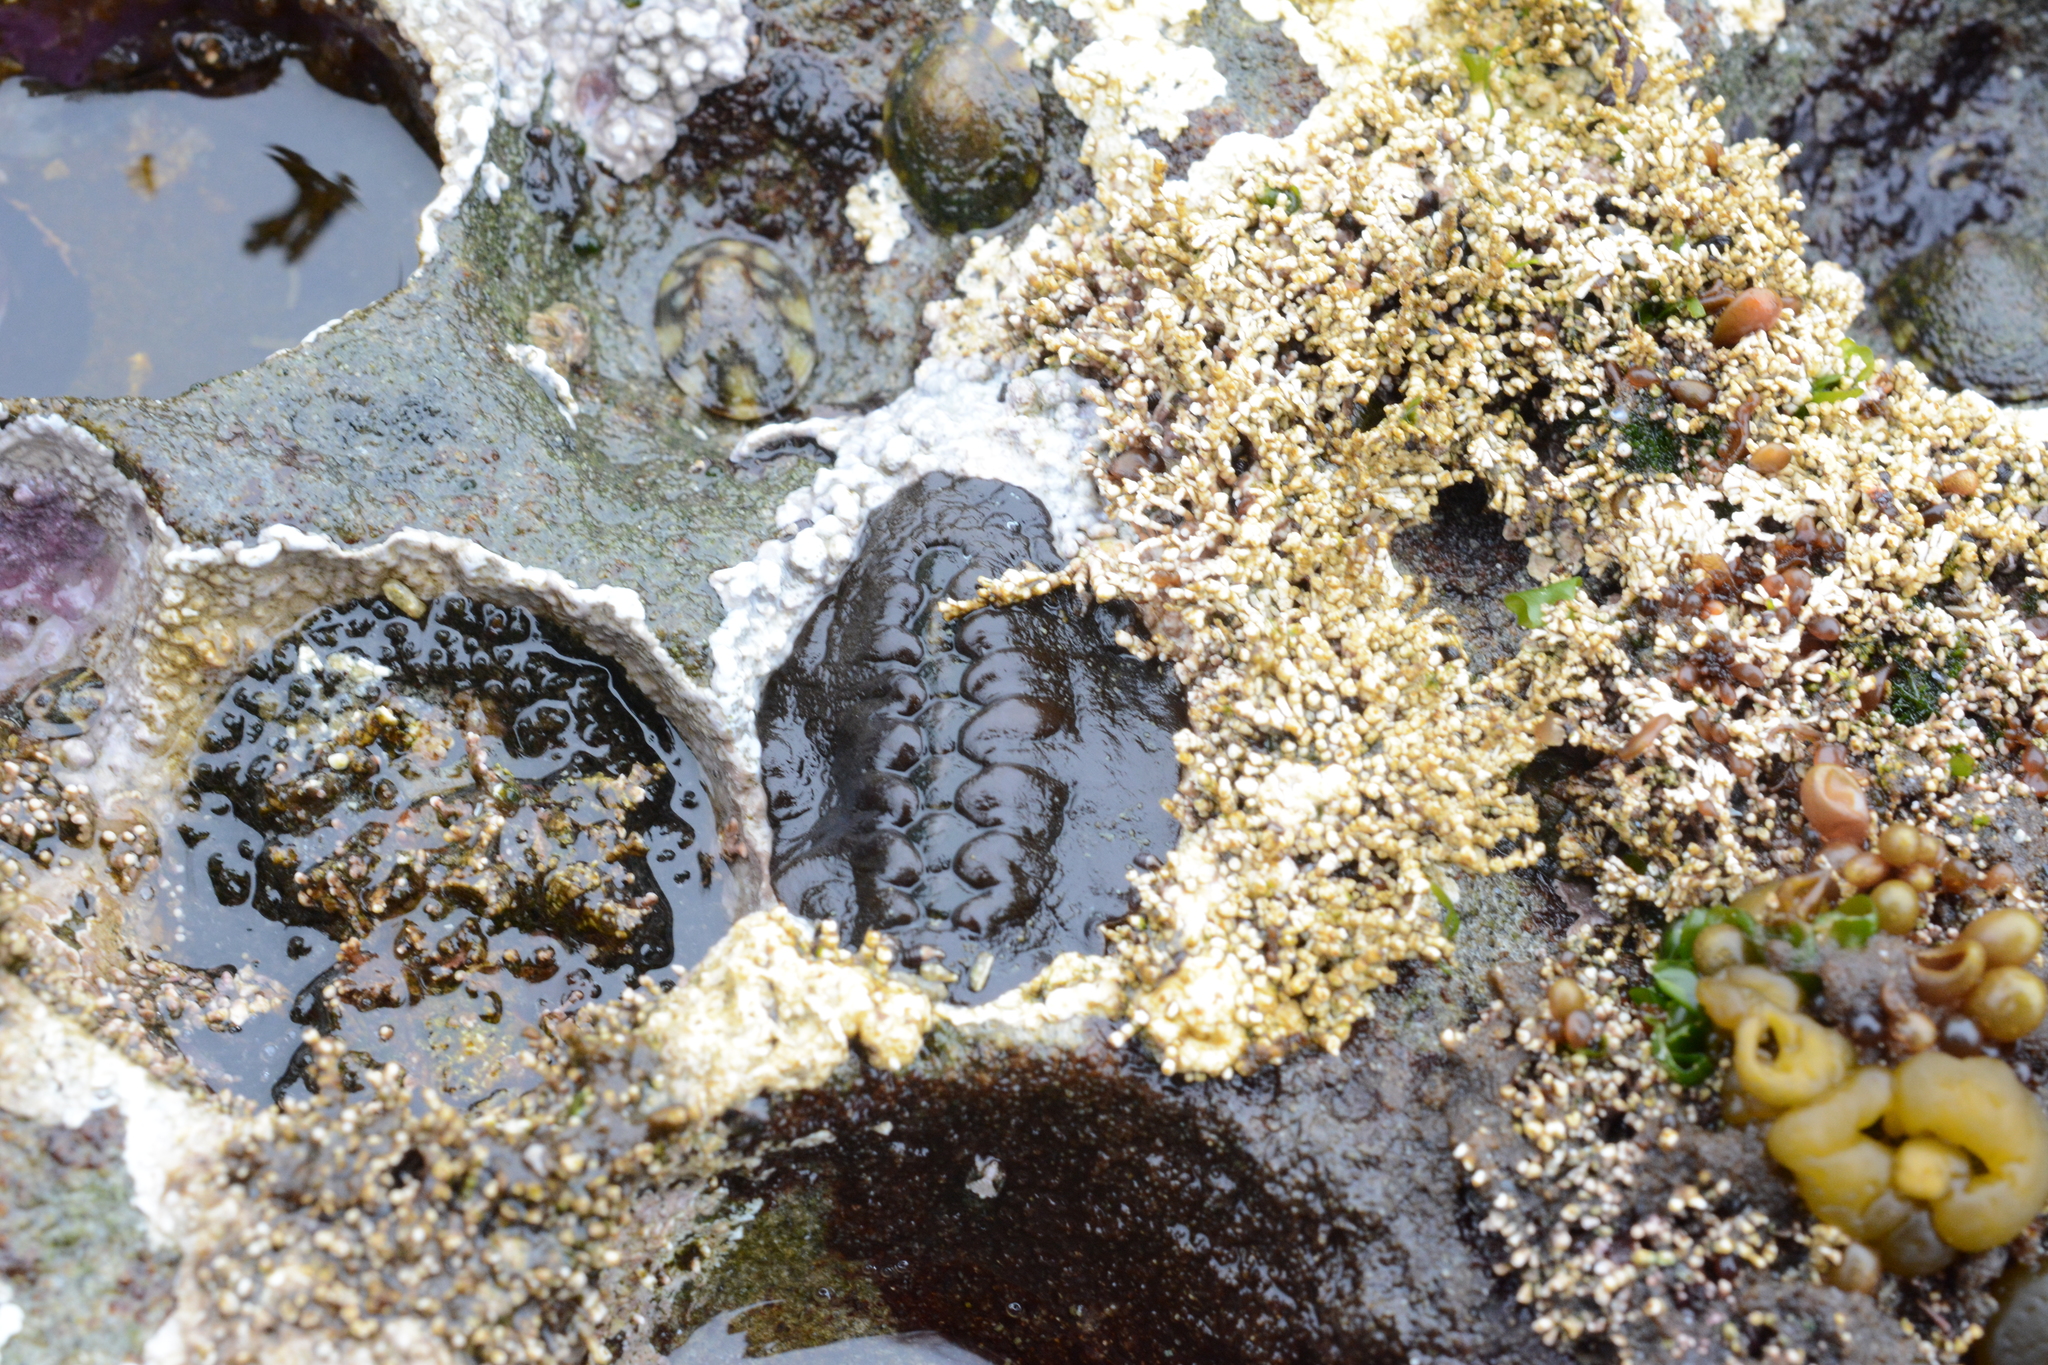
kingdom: Animalia
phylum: Mollusca
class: Polyplacophora
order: Chitonida
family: Mopaliidae
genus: Katharina
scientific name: Katharina tunicata
